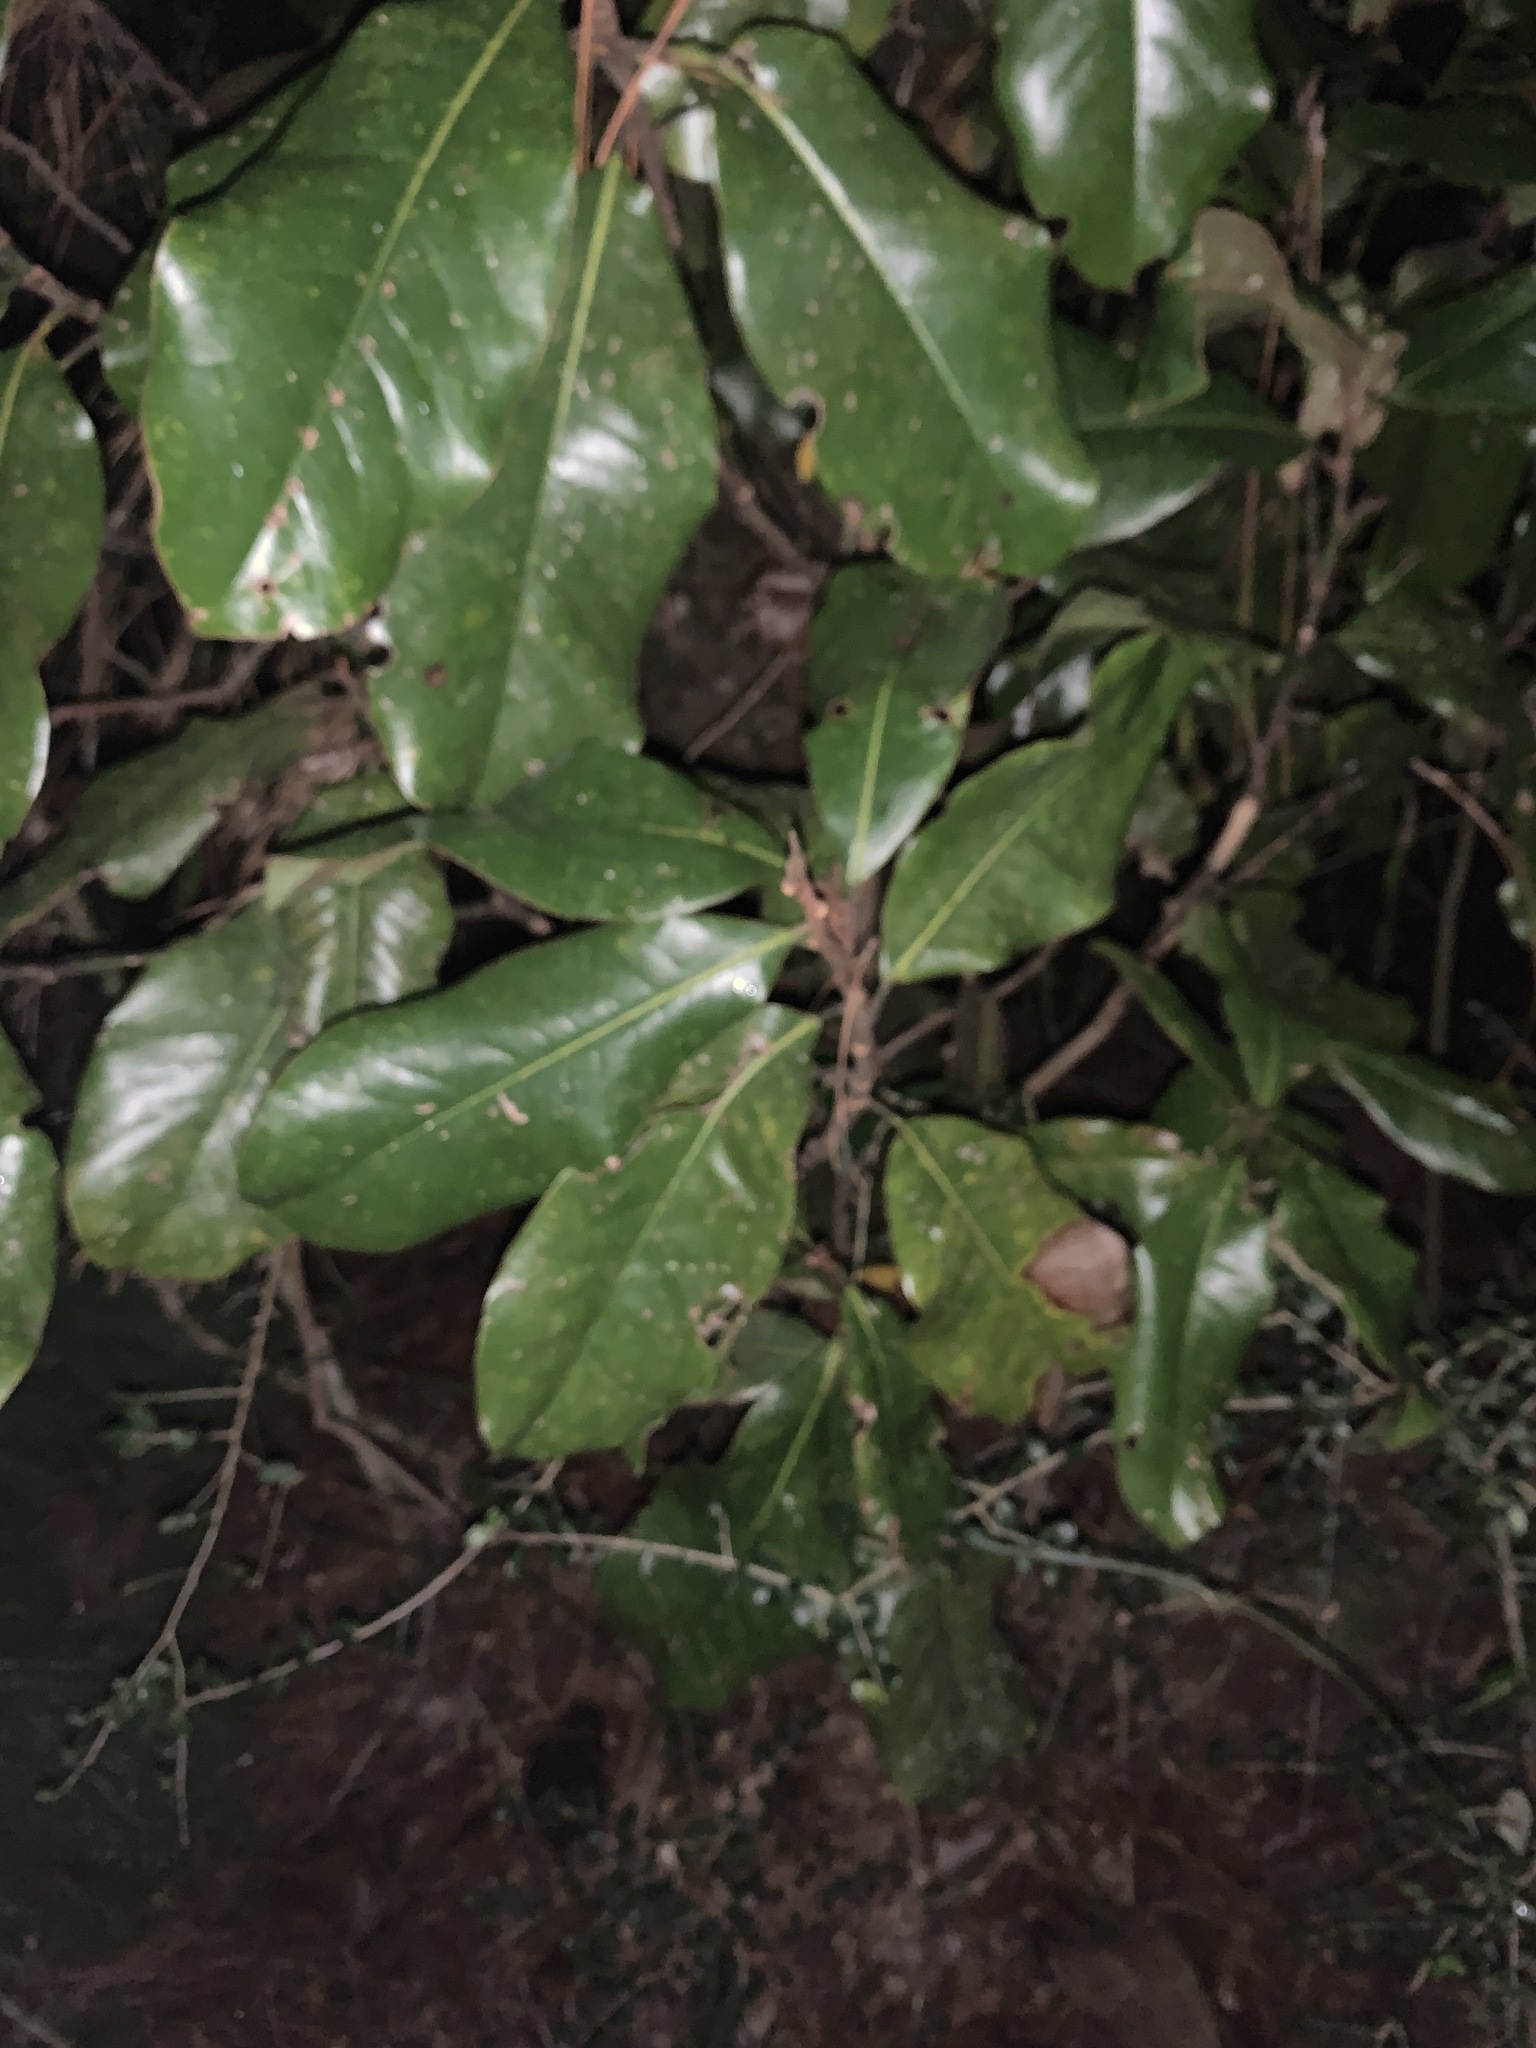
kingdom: Plantae
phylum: Tracheophyta
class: Magnoliopsida
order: Magnoliales
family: Magnoliaceae
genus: Magnolia
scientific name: Magnolia grandiflora
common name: Southern magnolia
